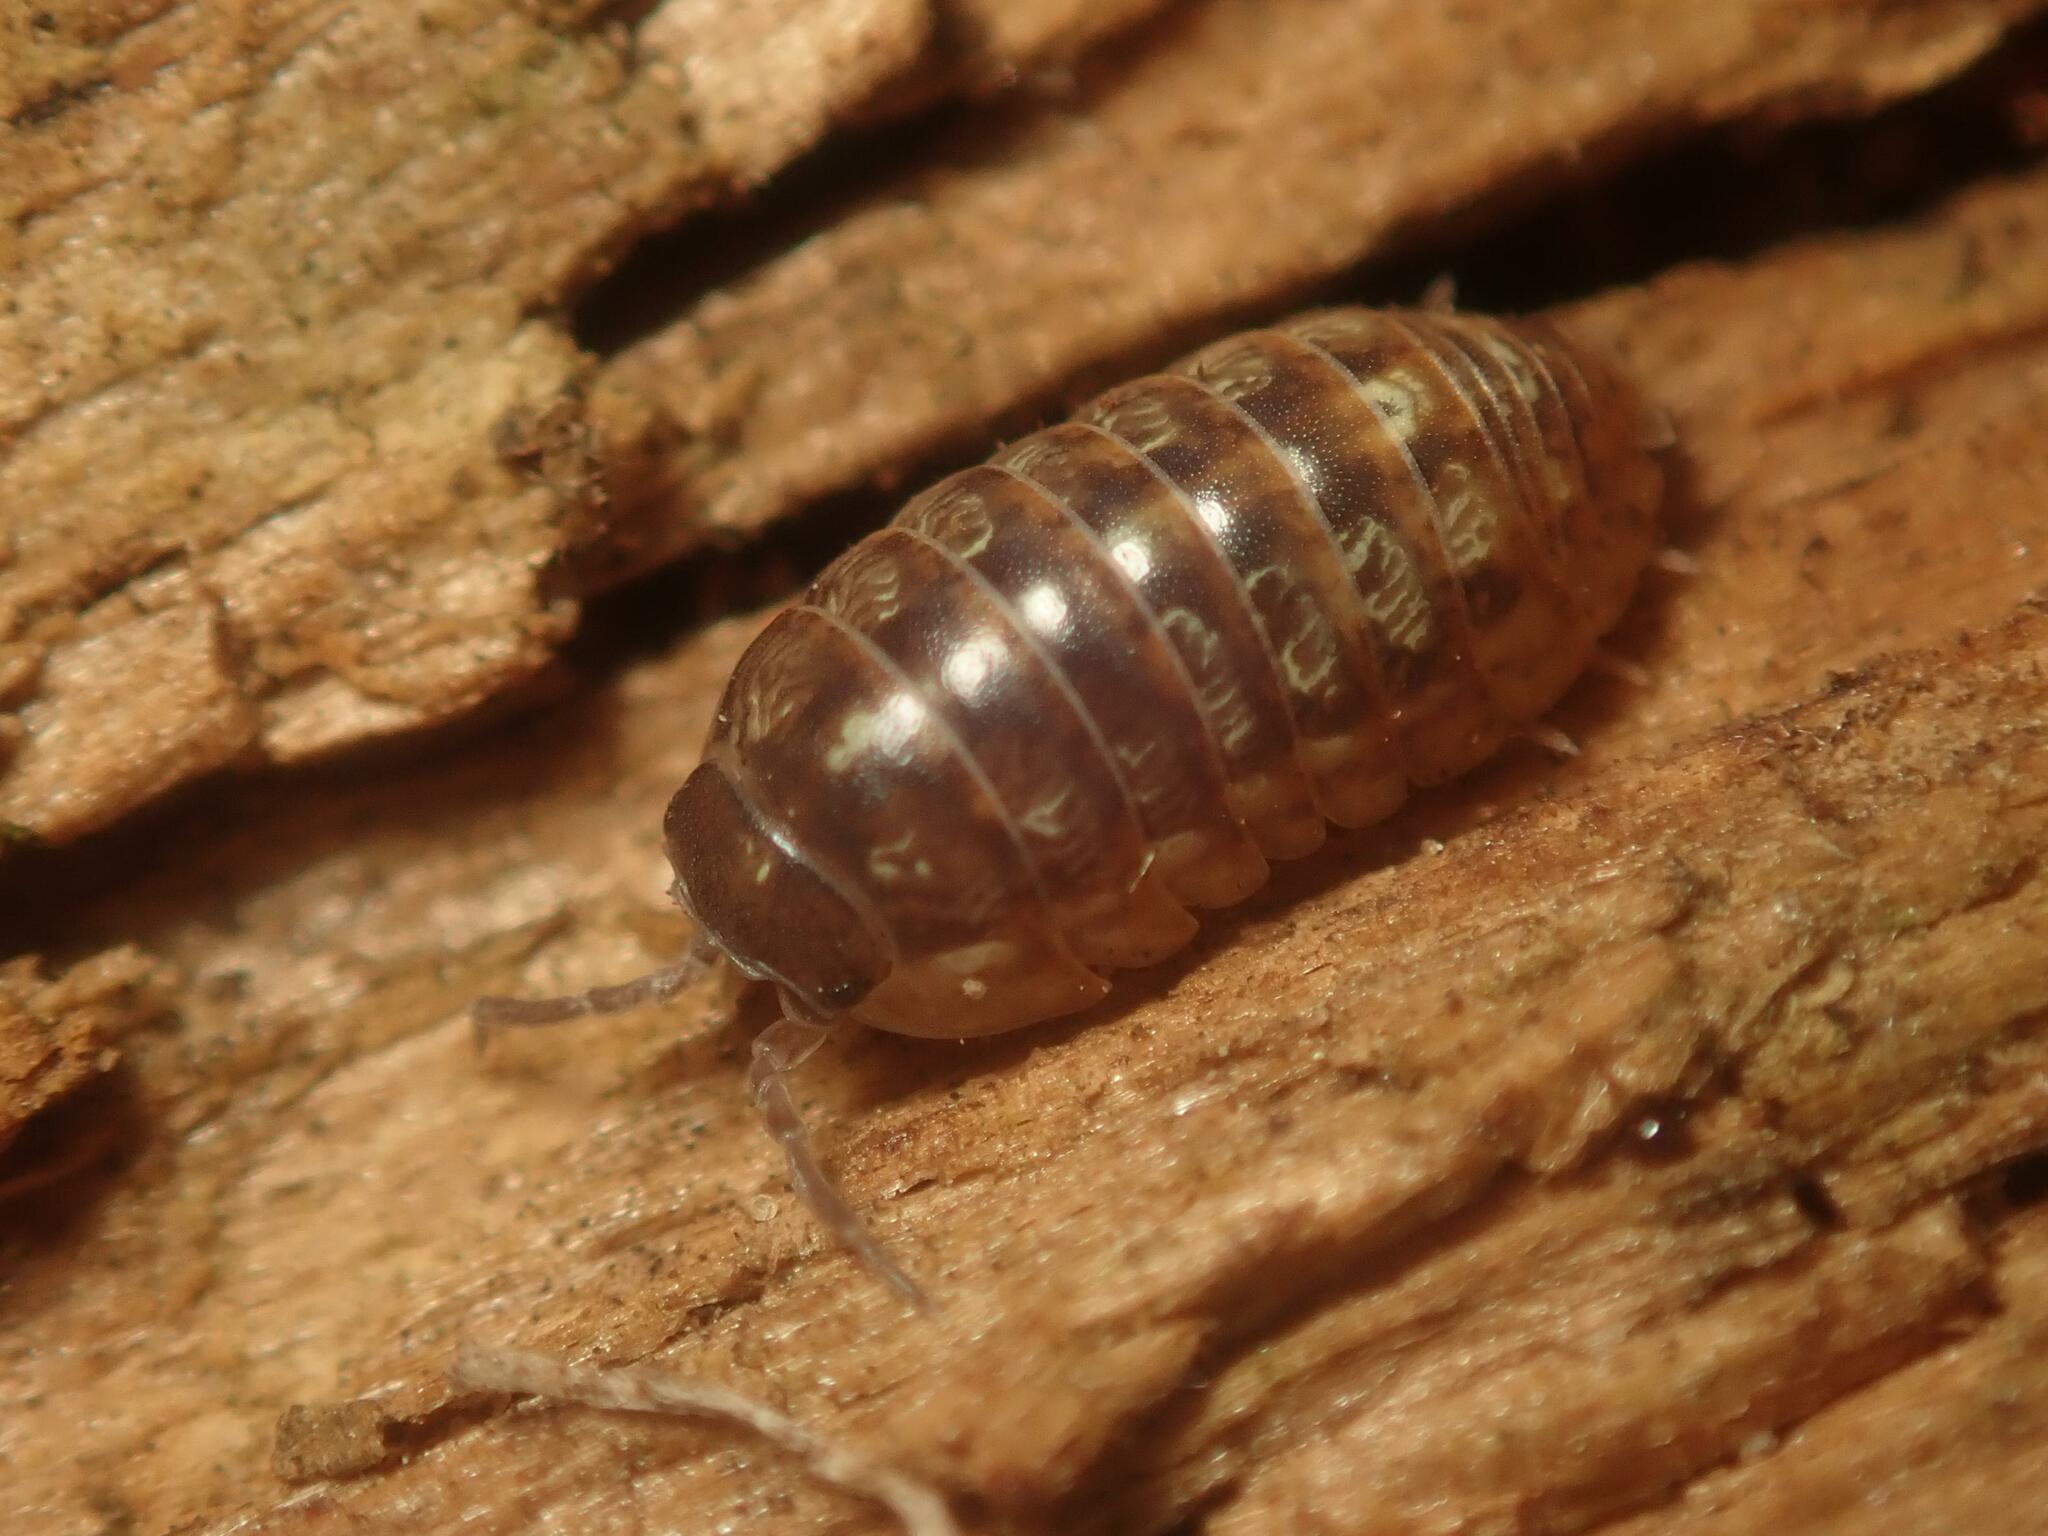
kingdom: Animalia
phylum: Arthropoda
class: Malacostraca
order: Isopoda
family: Armadillidiidae
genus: Armadillidium
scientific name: Armadillidium vulgare
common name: Common pill woodlouse
